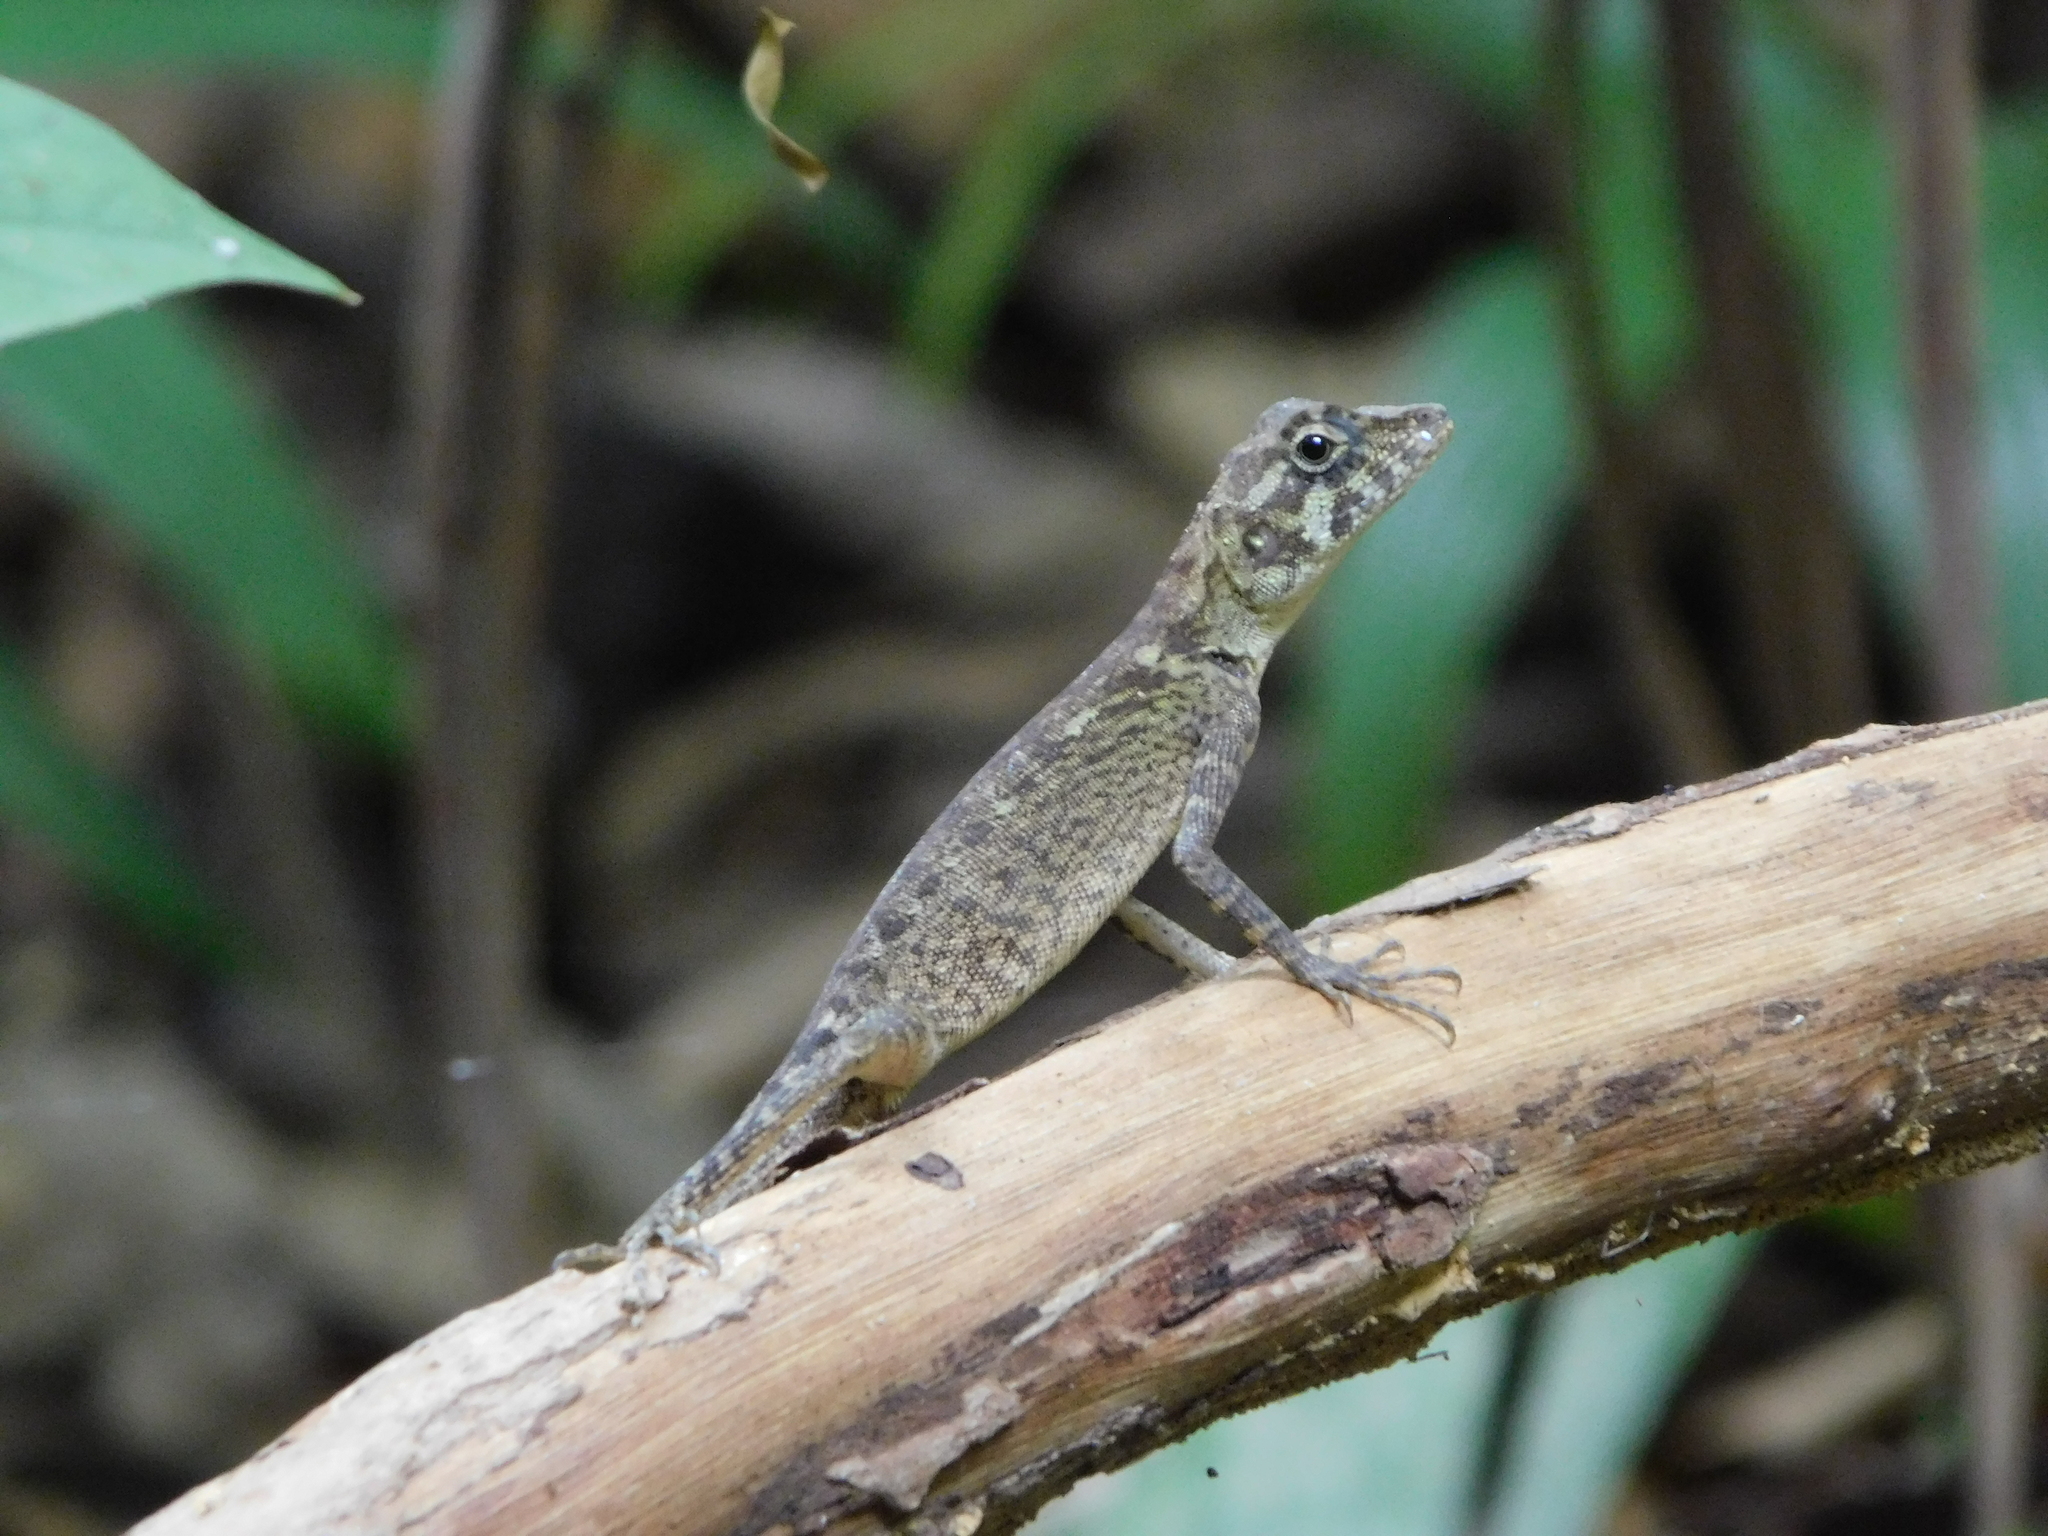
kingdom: Animalia
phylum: Chordata
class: Squamata
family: Agamidae
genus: Coryphophylax
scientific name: Coryphophylax subcristatus
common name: Short-crested bay island forest lizard
